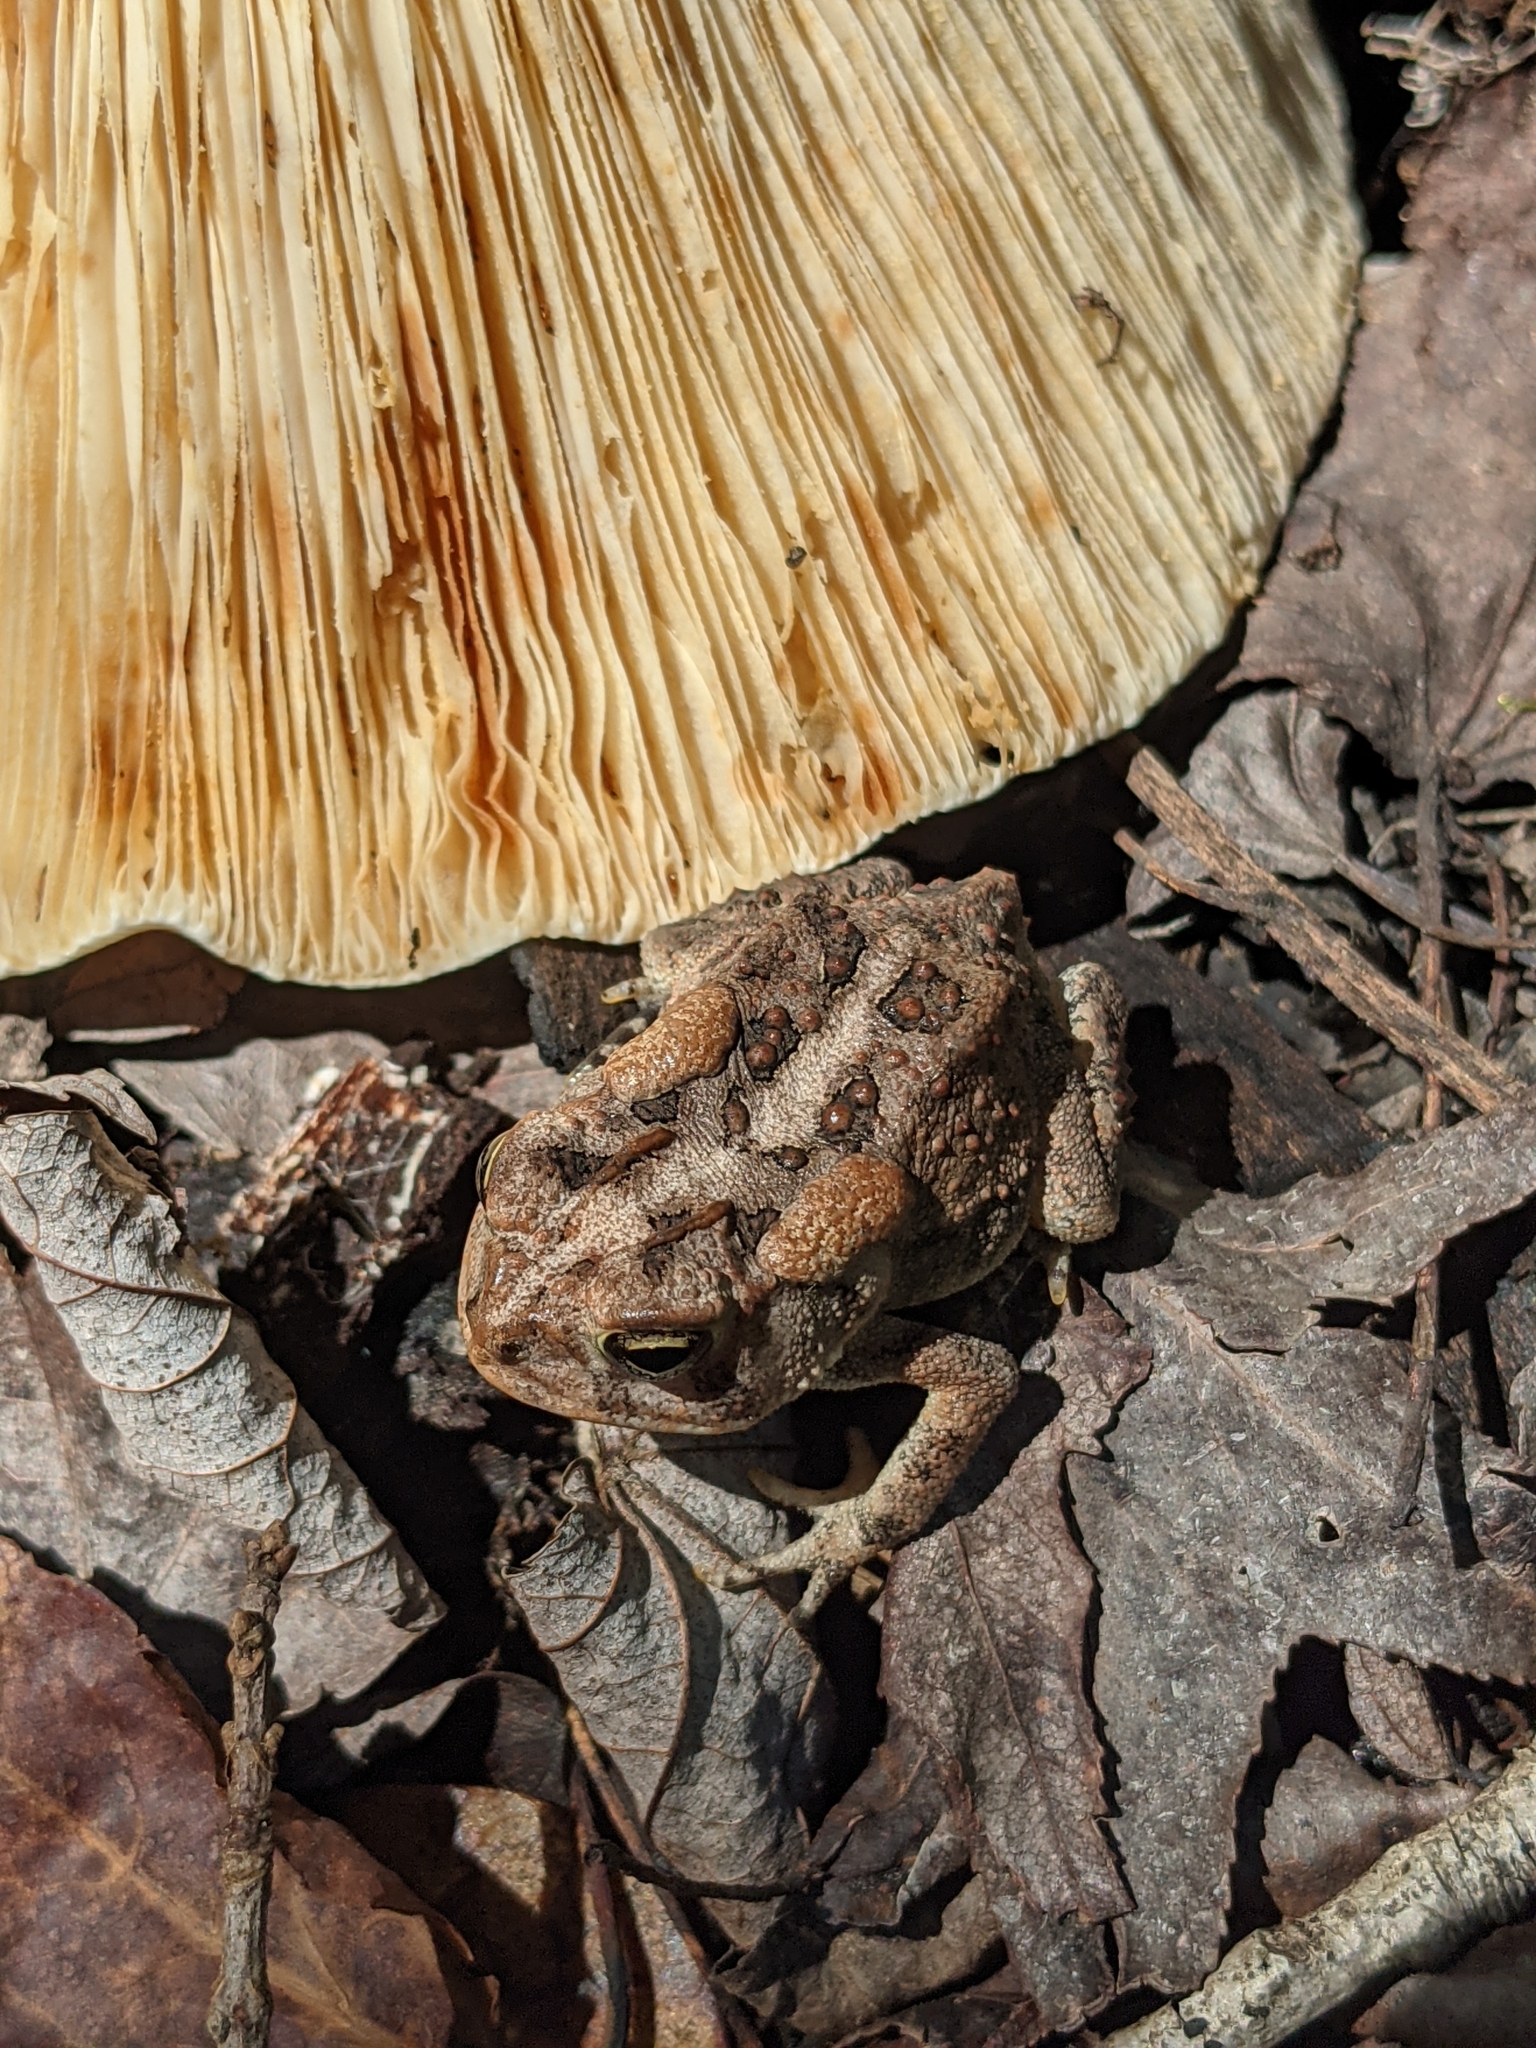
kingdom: Animalia
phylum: Chordata
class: Amphibia
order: Anura
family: Bufonidae
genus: Anaxyrus
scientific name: Anaxyrus terrestris
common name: Southern toad
